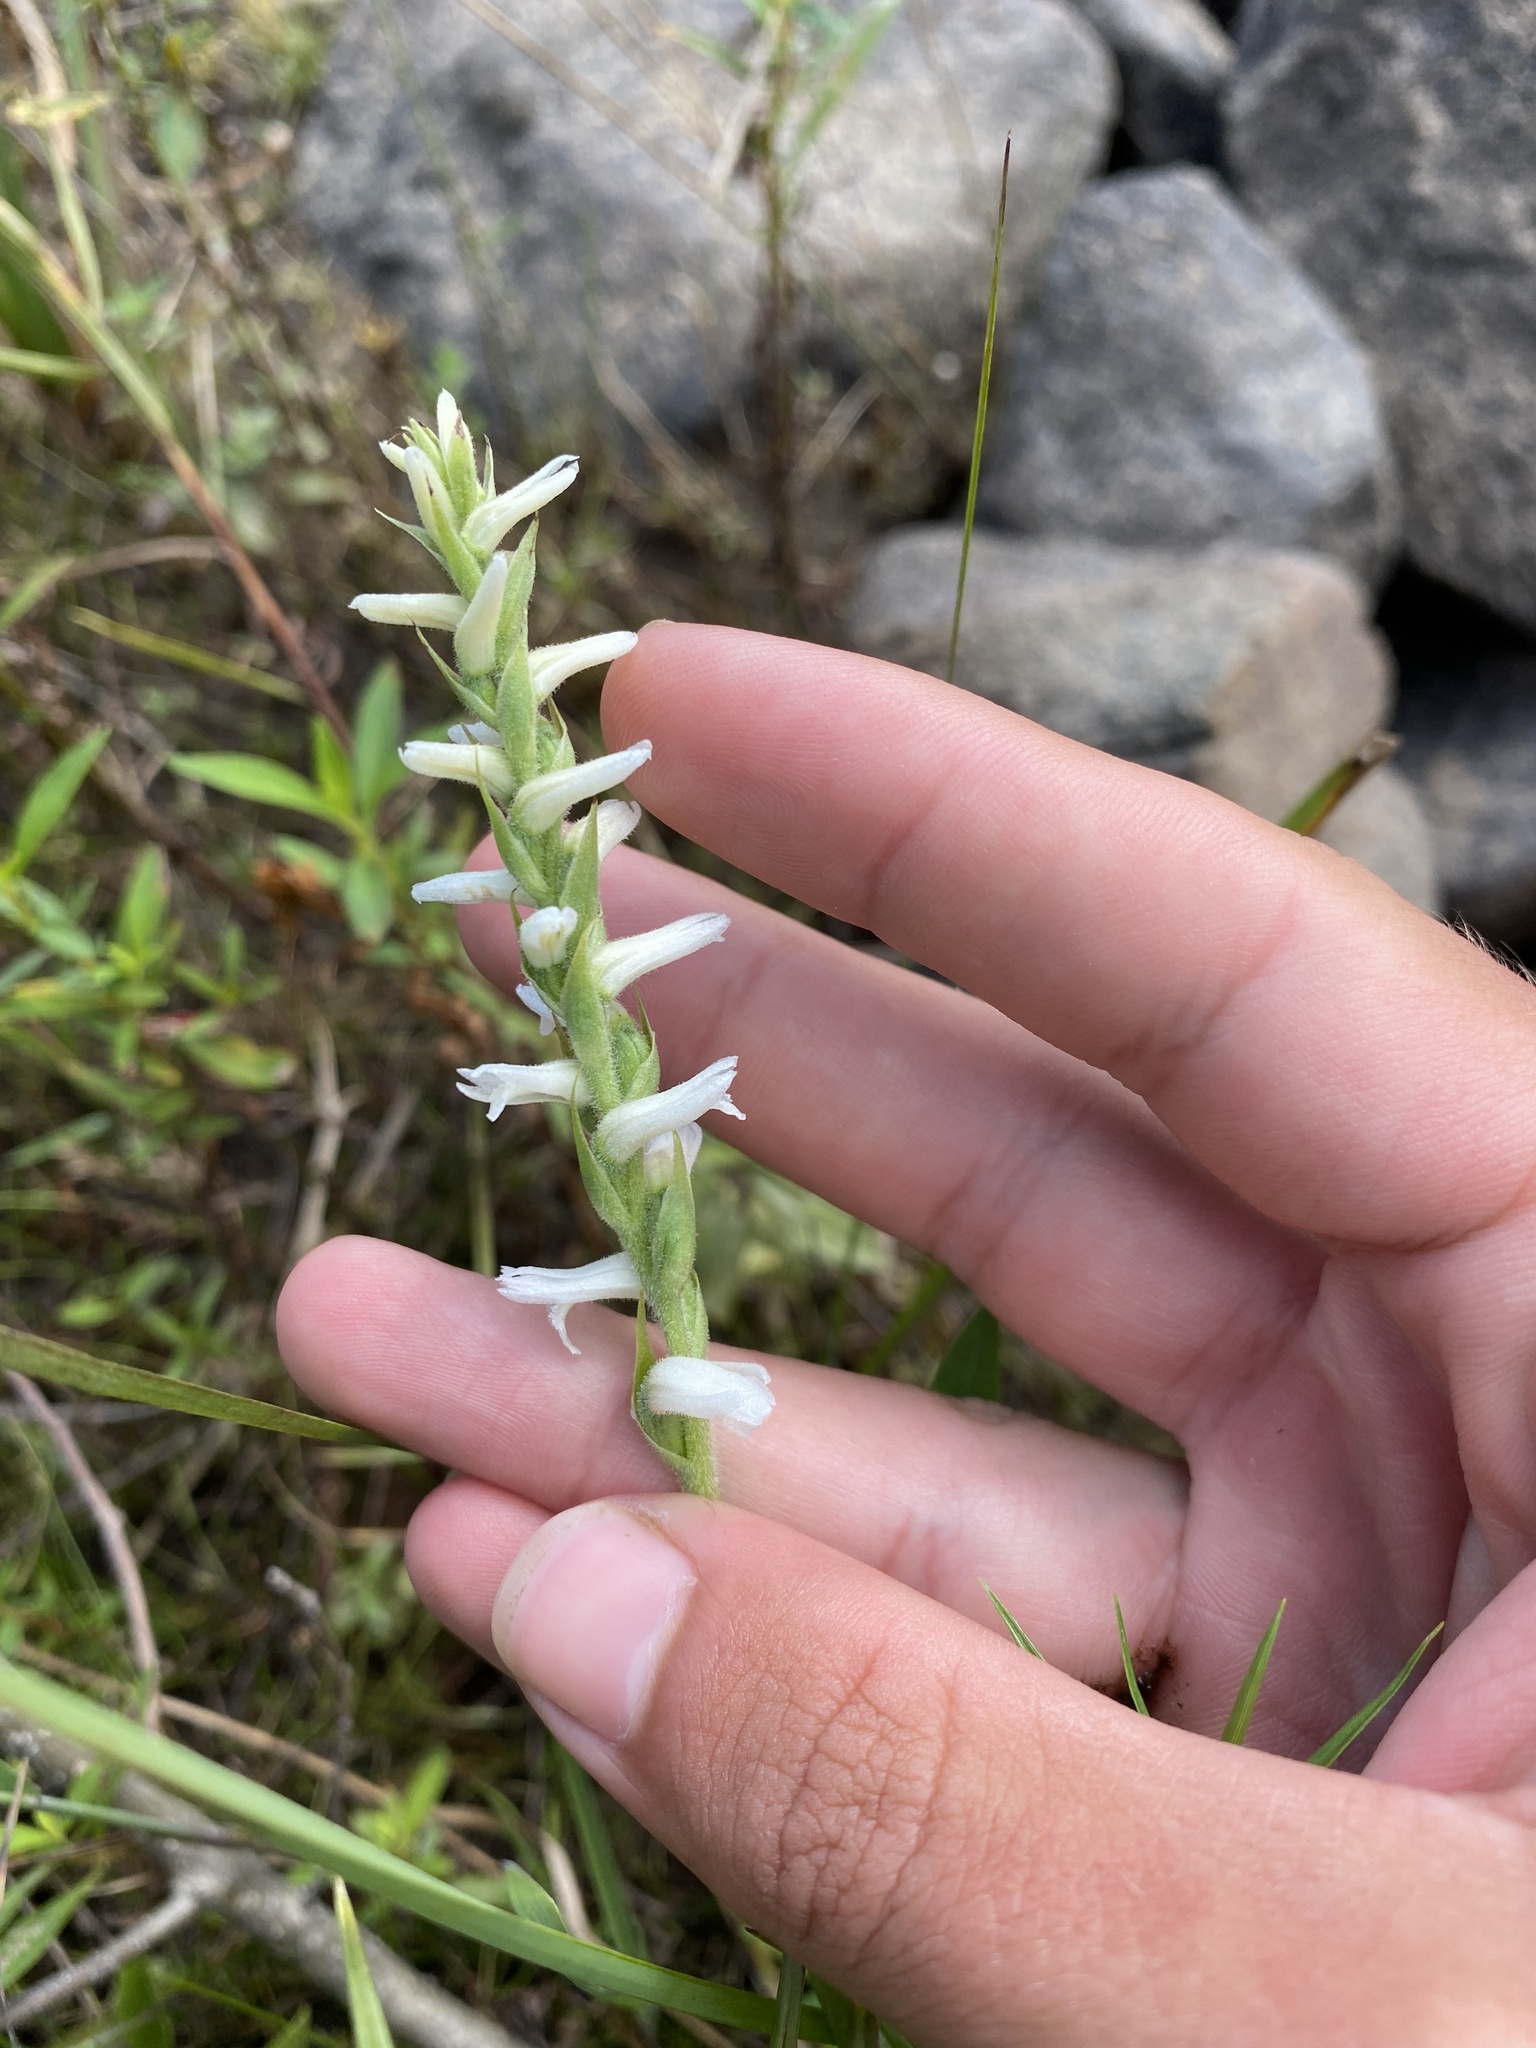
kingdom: Plantae
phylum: Tracheophyta
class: Liliopsida
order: Asparagales
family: Orchidaceae
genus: Spiranthes
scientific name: Spiranthes incurva
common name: Sphinx ladies'-tresses
